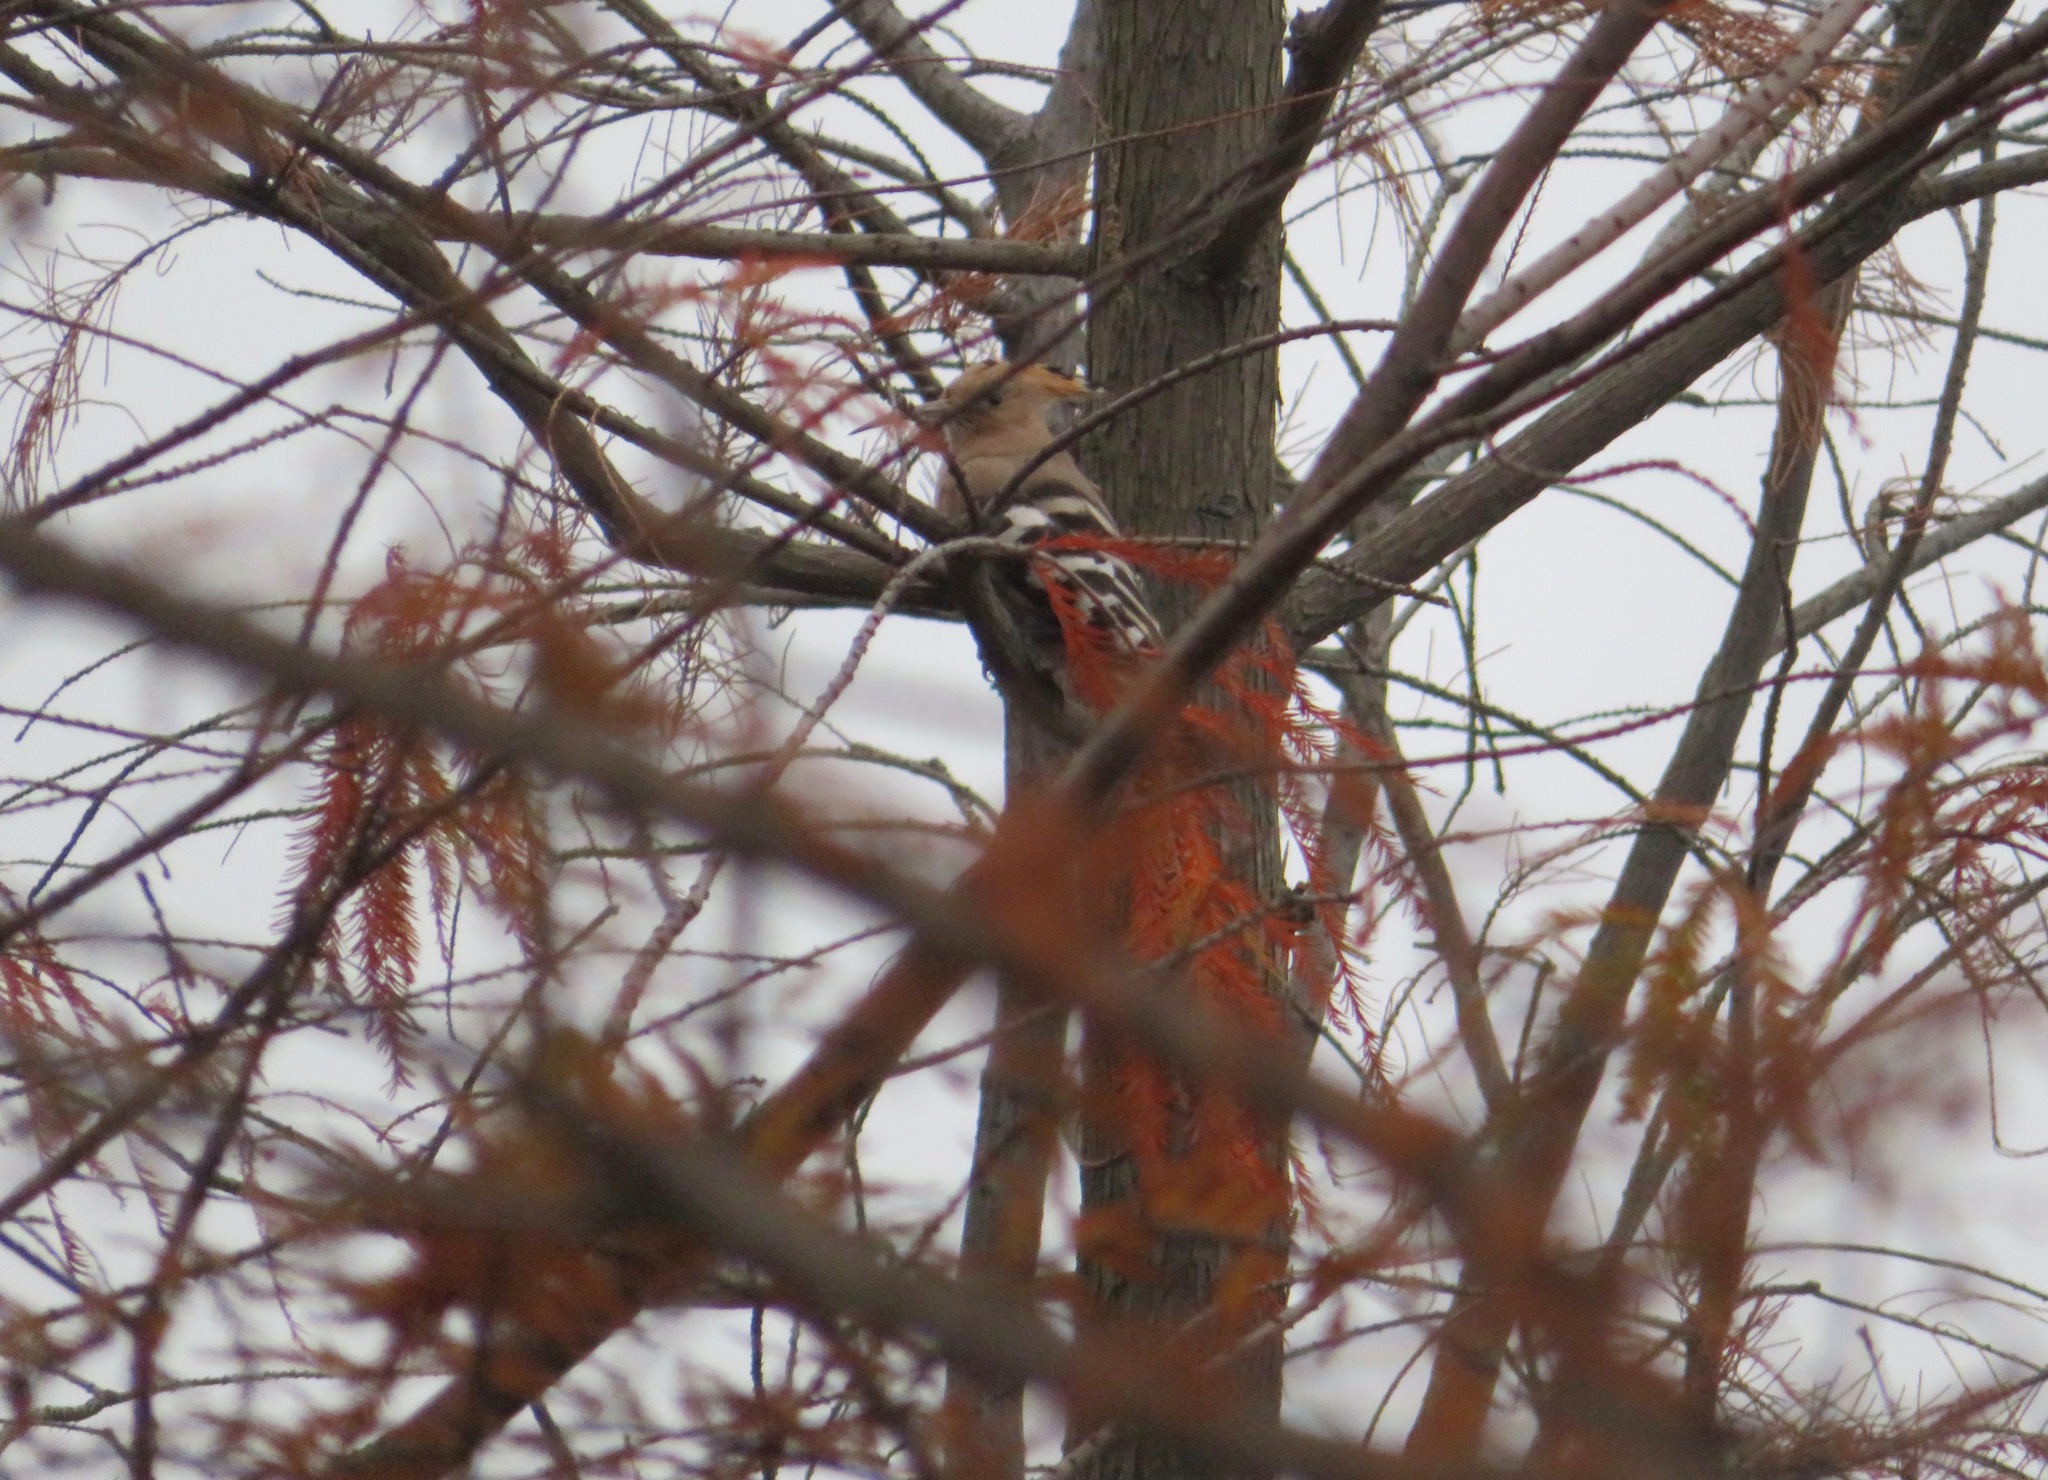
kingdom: Animalia
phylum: Chordata
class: Aves
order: Bucerotiformes
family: Upupidae
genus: Upupa
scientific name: Upupa epops
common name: Eurasian hoopoe
